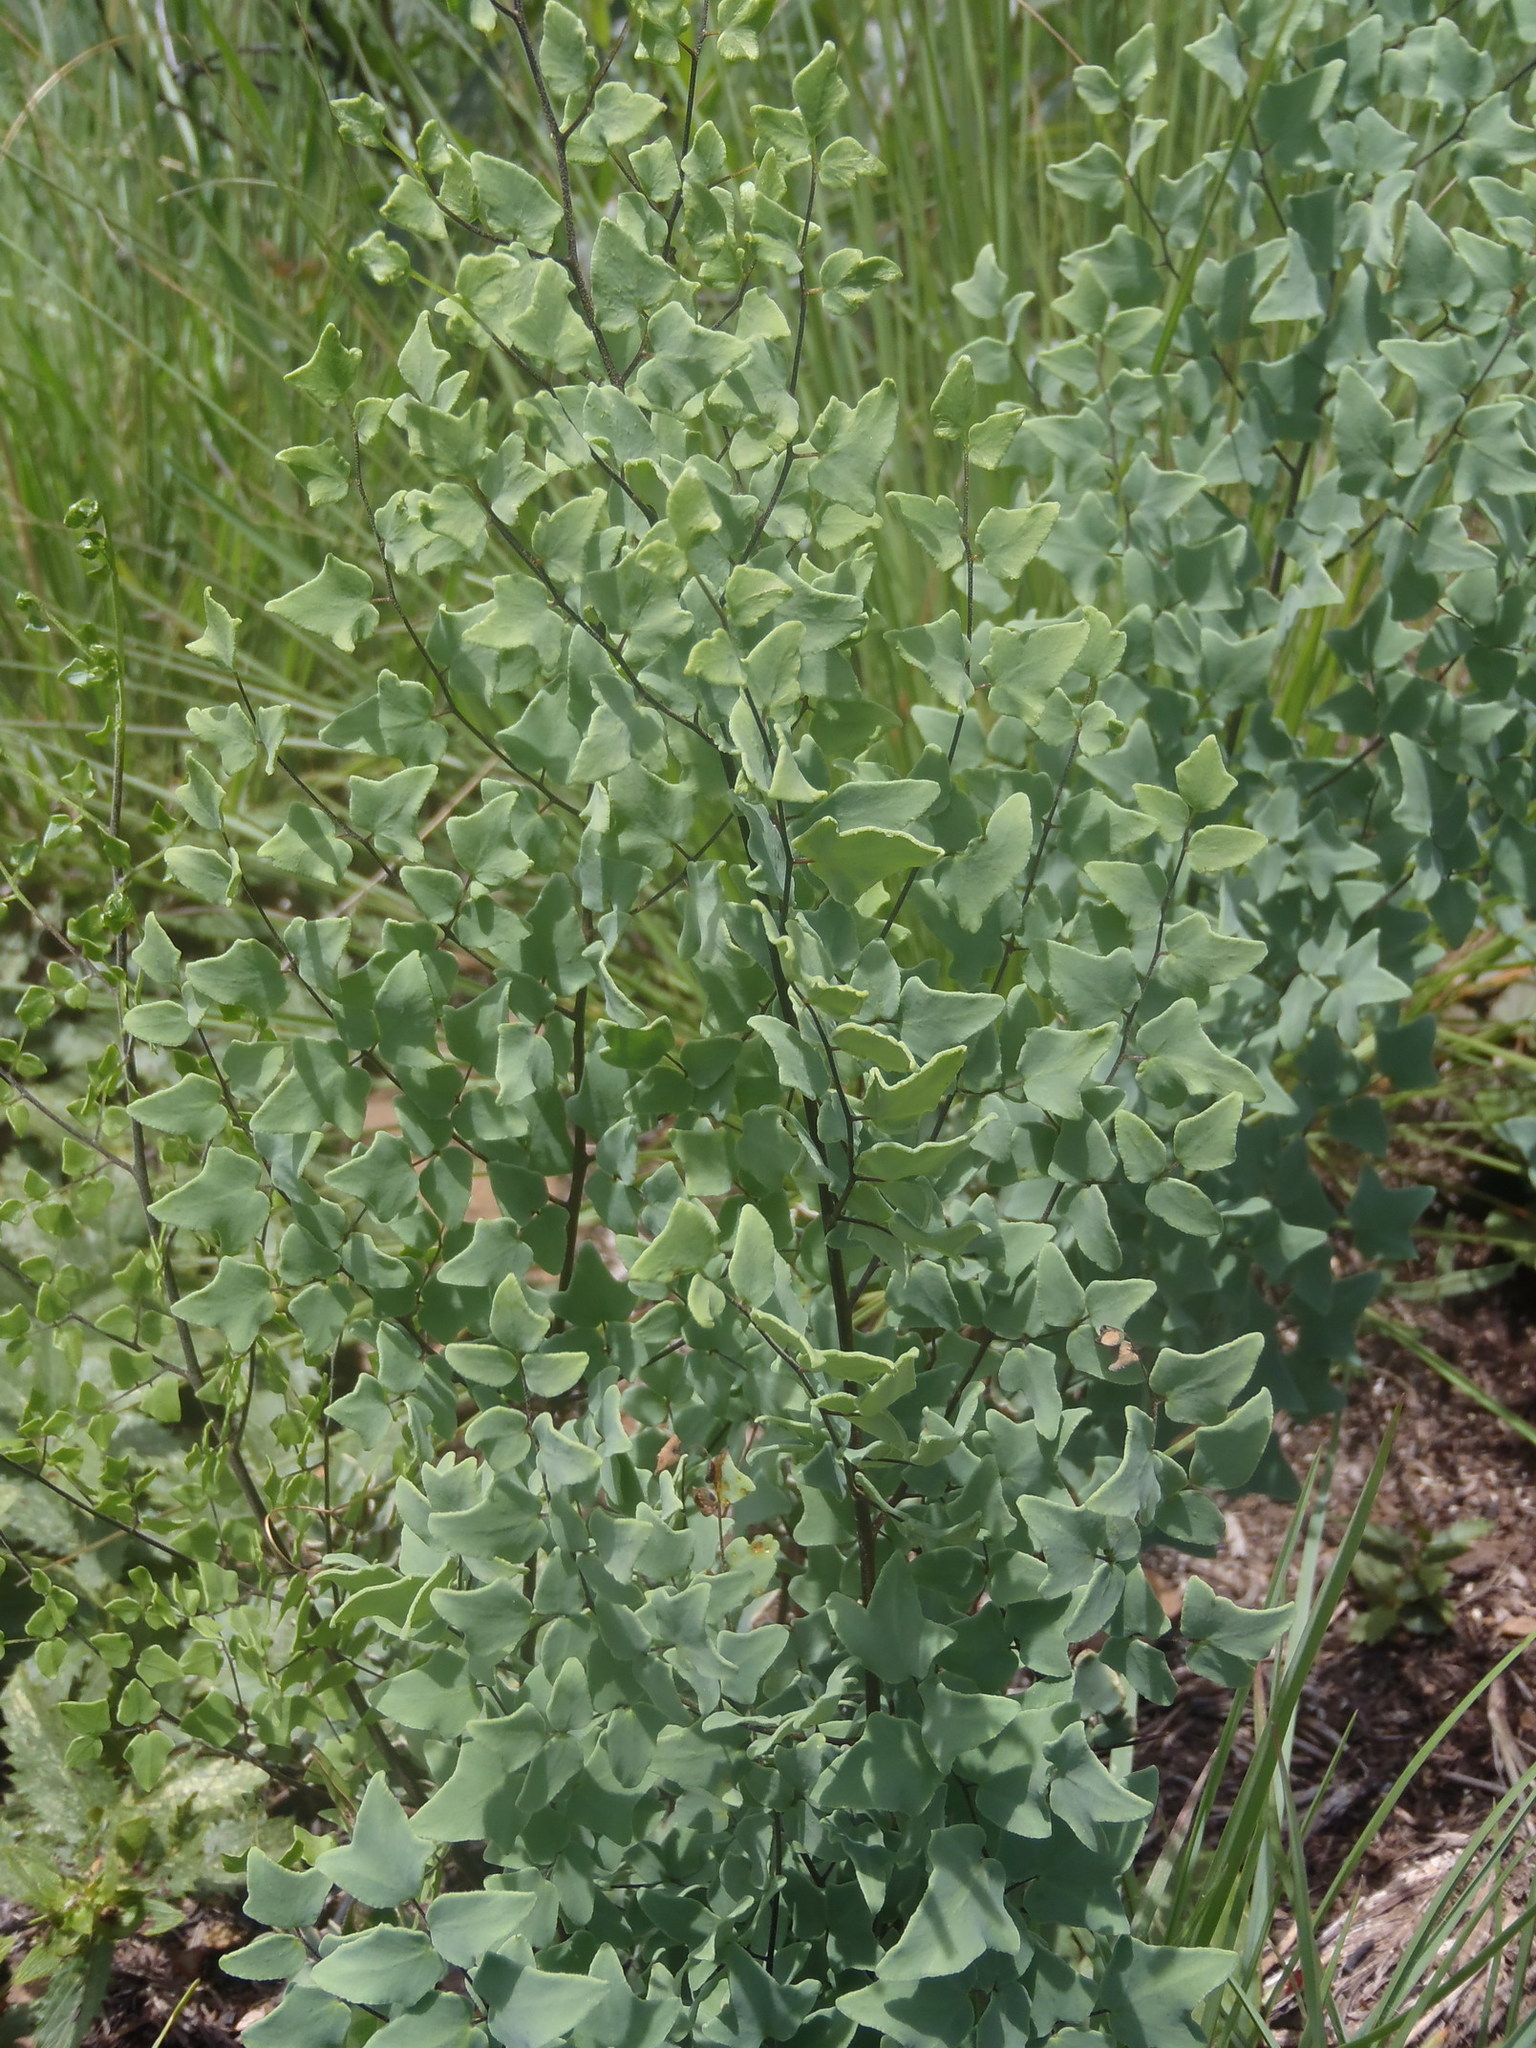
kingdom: Plantae
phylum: Tracheophyta
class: Polypodiopsida
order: Polypodiales
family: Pteridaceae
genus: Pellaea
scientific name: Pellaea calomelanos
